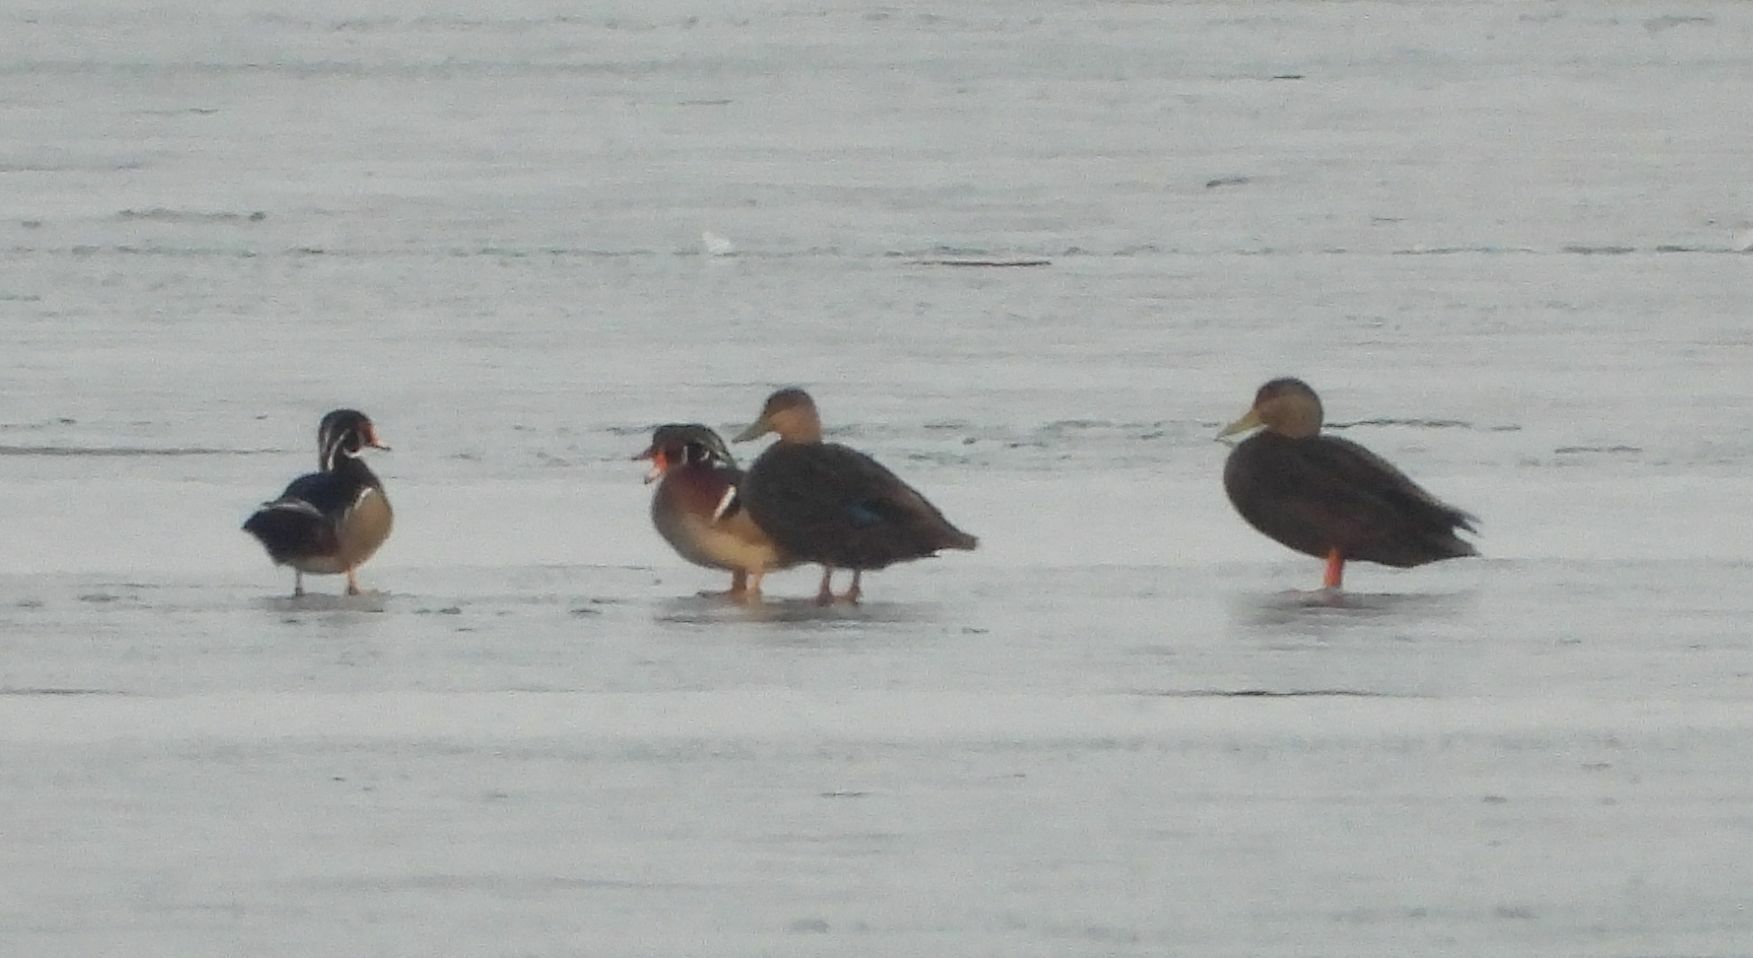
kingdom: Animalia
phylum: Chordata
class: Aves
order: Anseriformes
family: Anatidae
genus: Anas
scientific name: Anas rubripes
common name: American black duck
